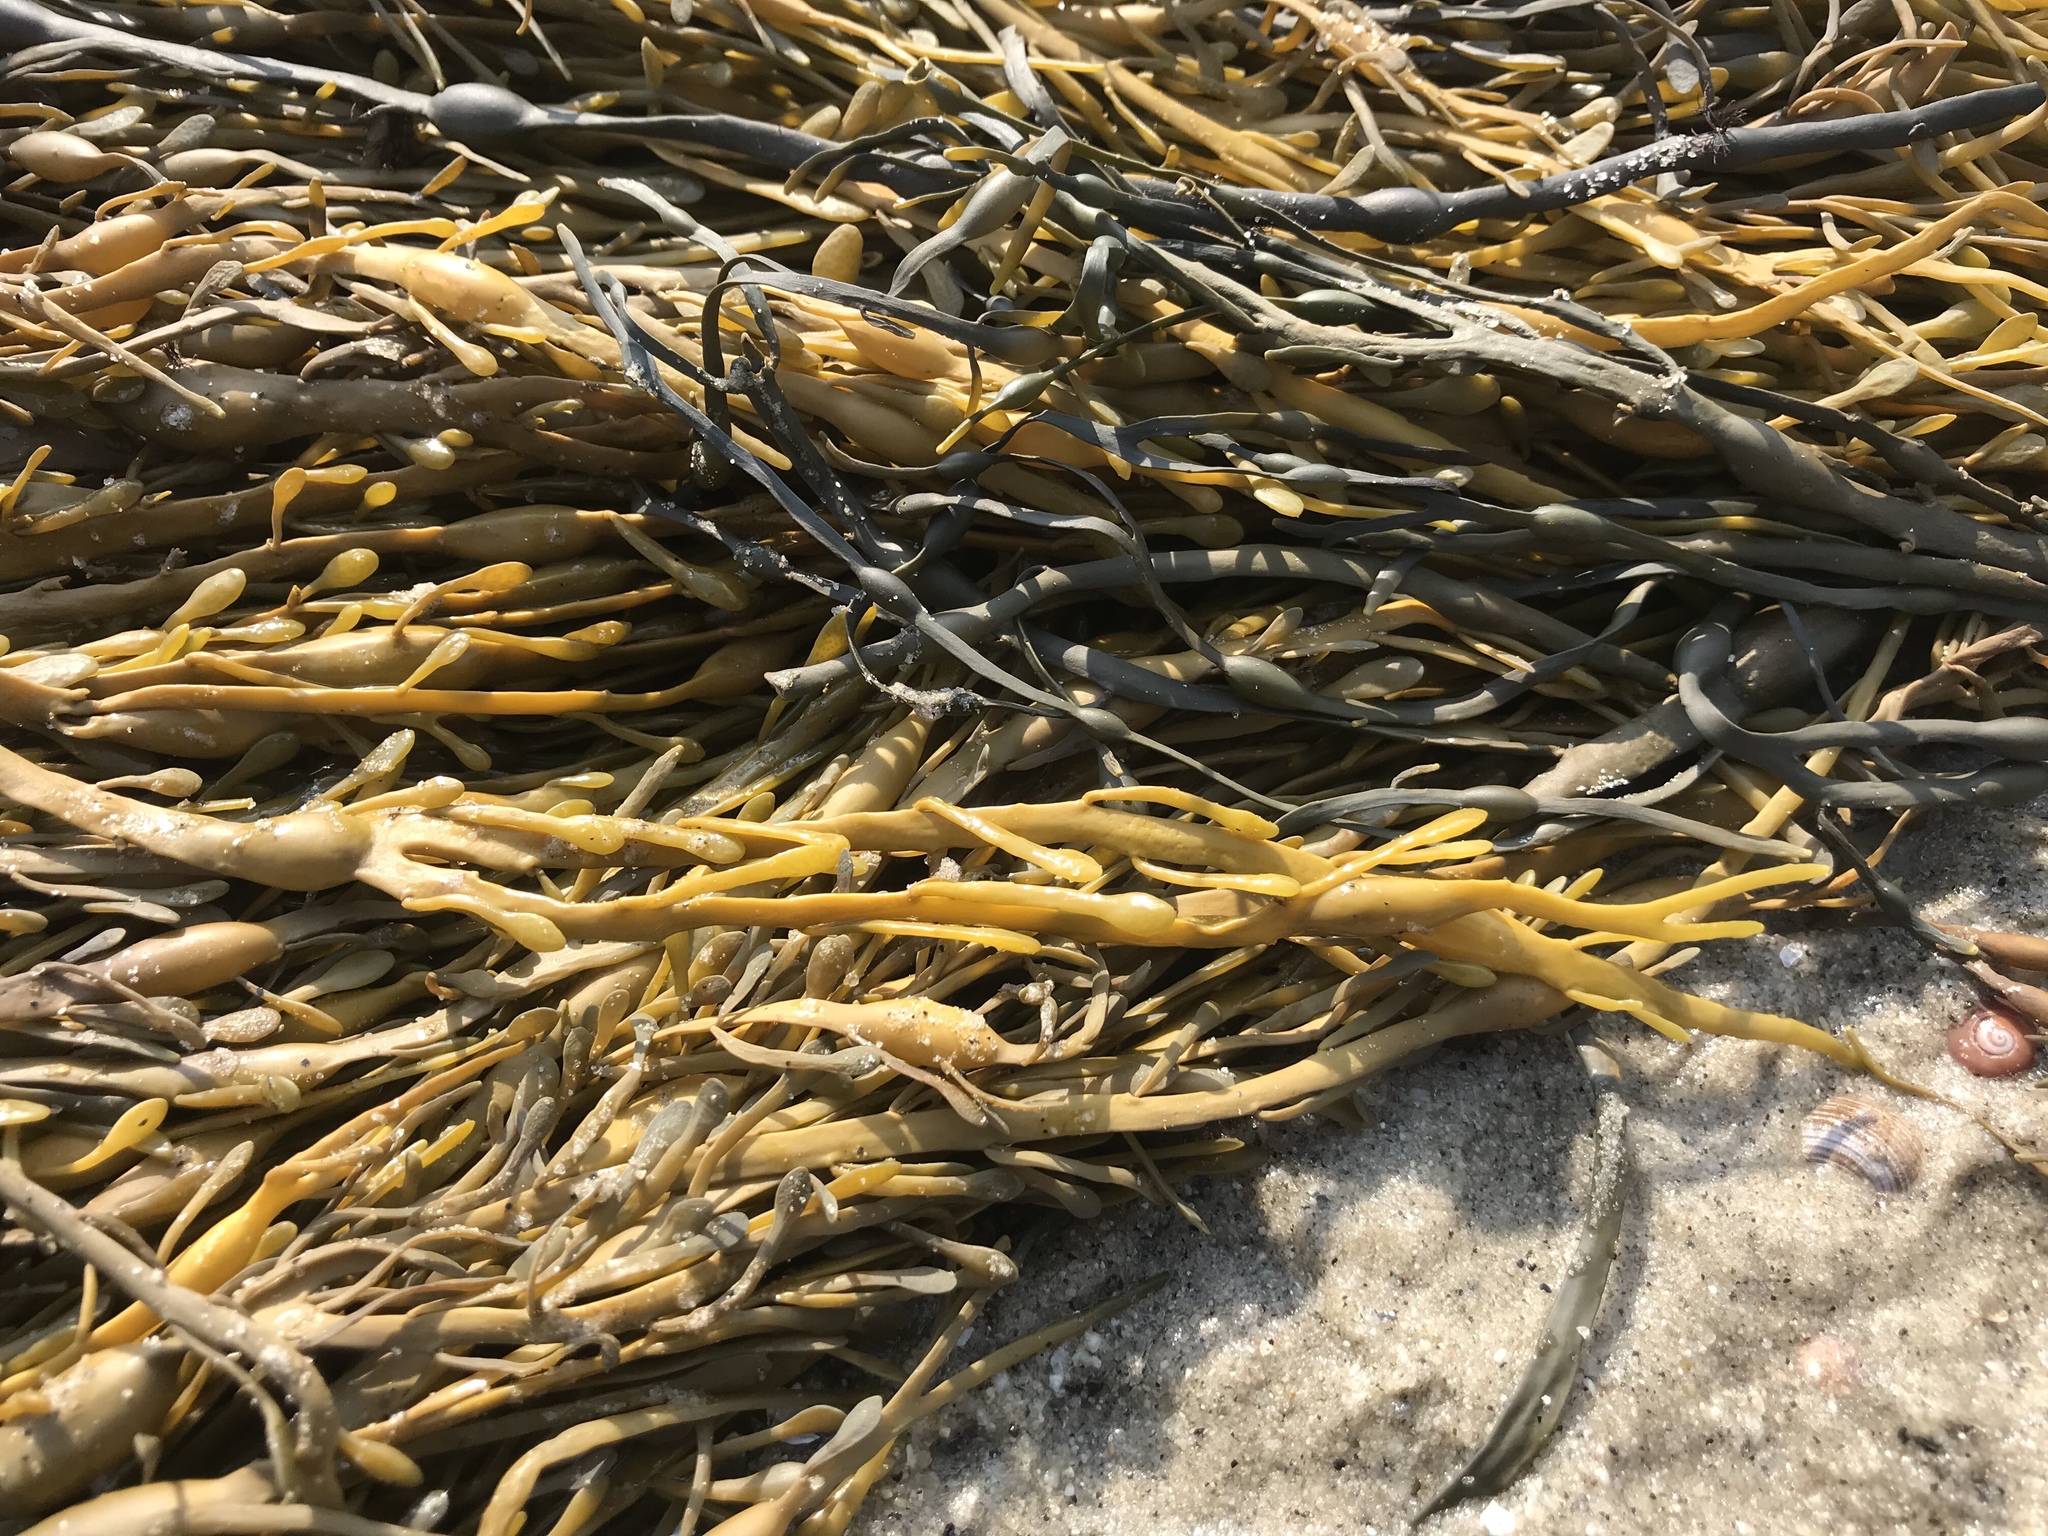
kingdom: Chromista
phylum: Ochrophyta
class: Phaeophyceae
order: Fucales
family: Fucaceae
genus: Ascophyllum
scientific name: Ascophyllum nodosum
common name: Knotted wrack
